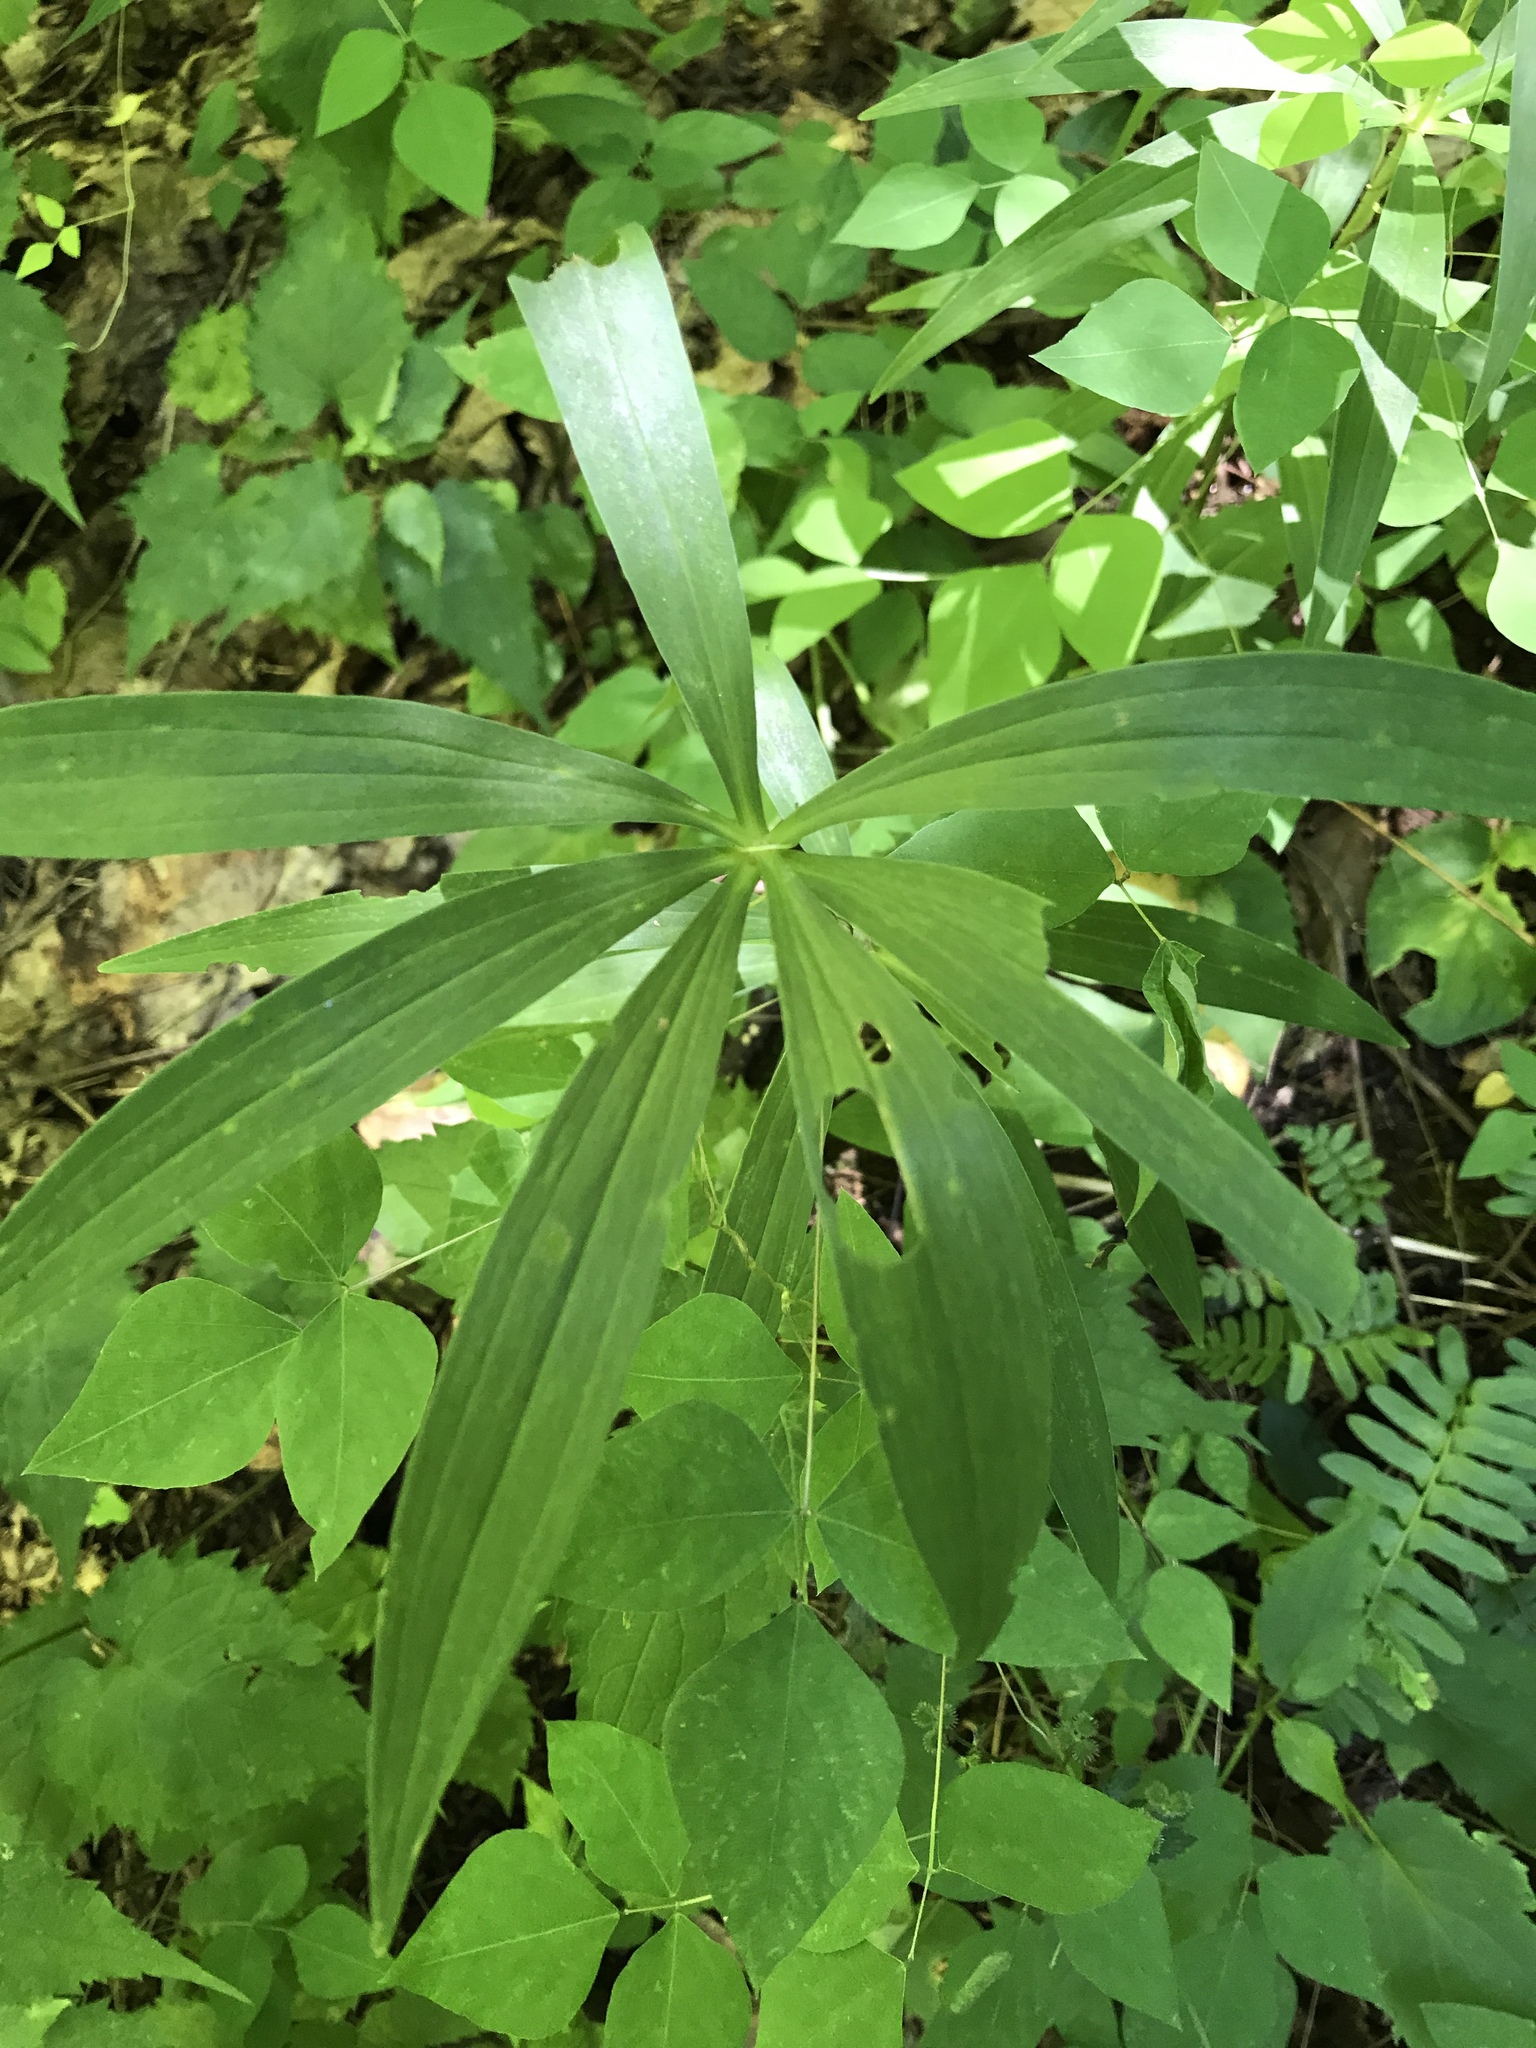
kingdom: Plantae
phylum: Tracheophyta
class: Liliopsida
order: Liliales
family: Liliaceae
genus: Lilium
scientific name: Lilium superbum
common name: American turk's-cap lily
